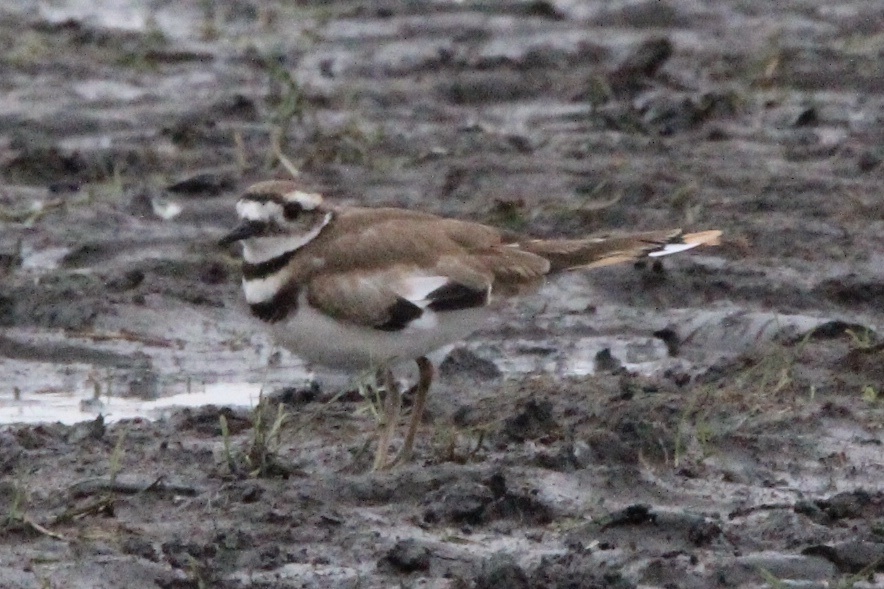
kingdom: Animalia
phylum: Chordata
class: Aves
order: Charadriiformes
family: Charadriidae
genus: Charadrius
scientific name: Charadrius vociferus
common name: Killdeer
